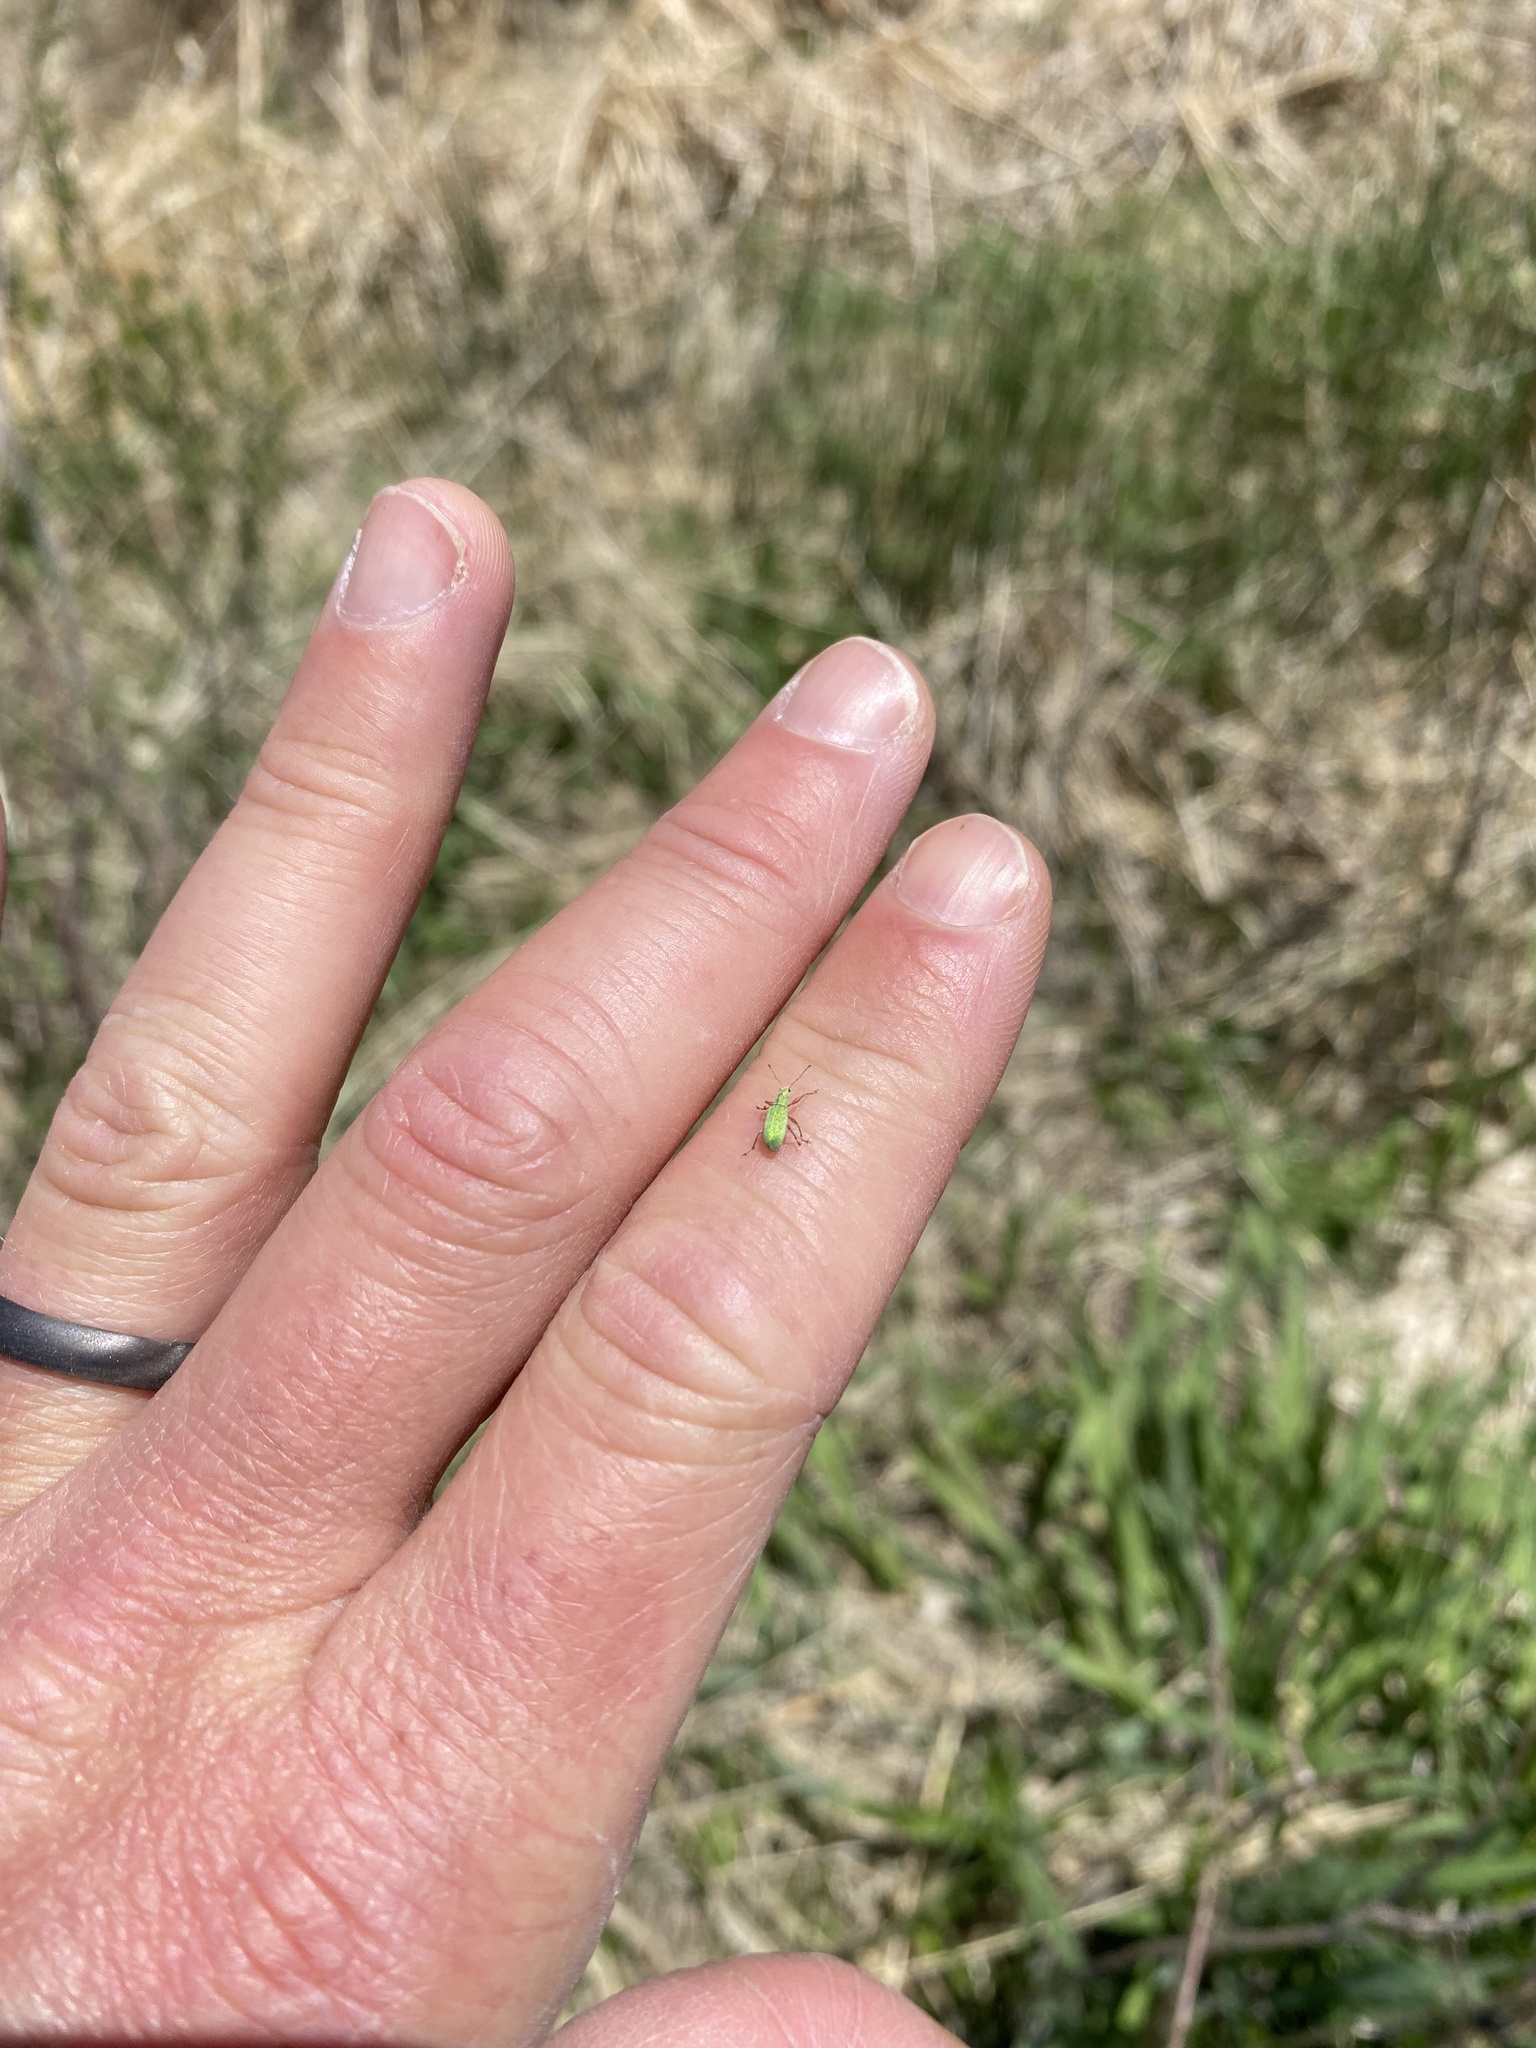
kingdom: Animalia
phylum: Arthropoda
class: Insecta
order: Coleoptera
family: Curculionidae
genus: Polydrusus
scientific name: Polydrusus impressifrons
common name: Weevil
